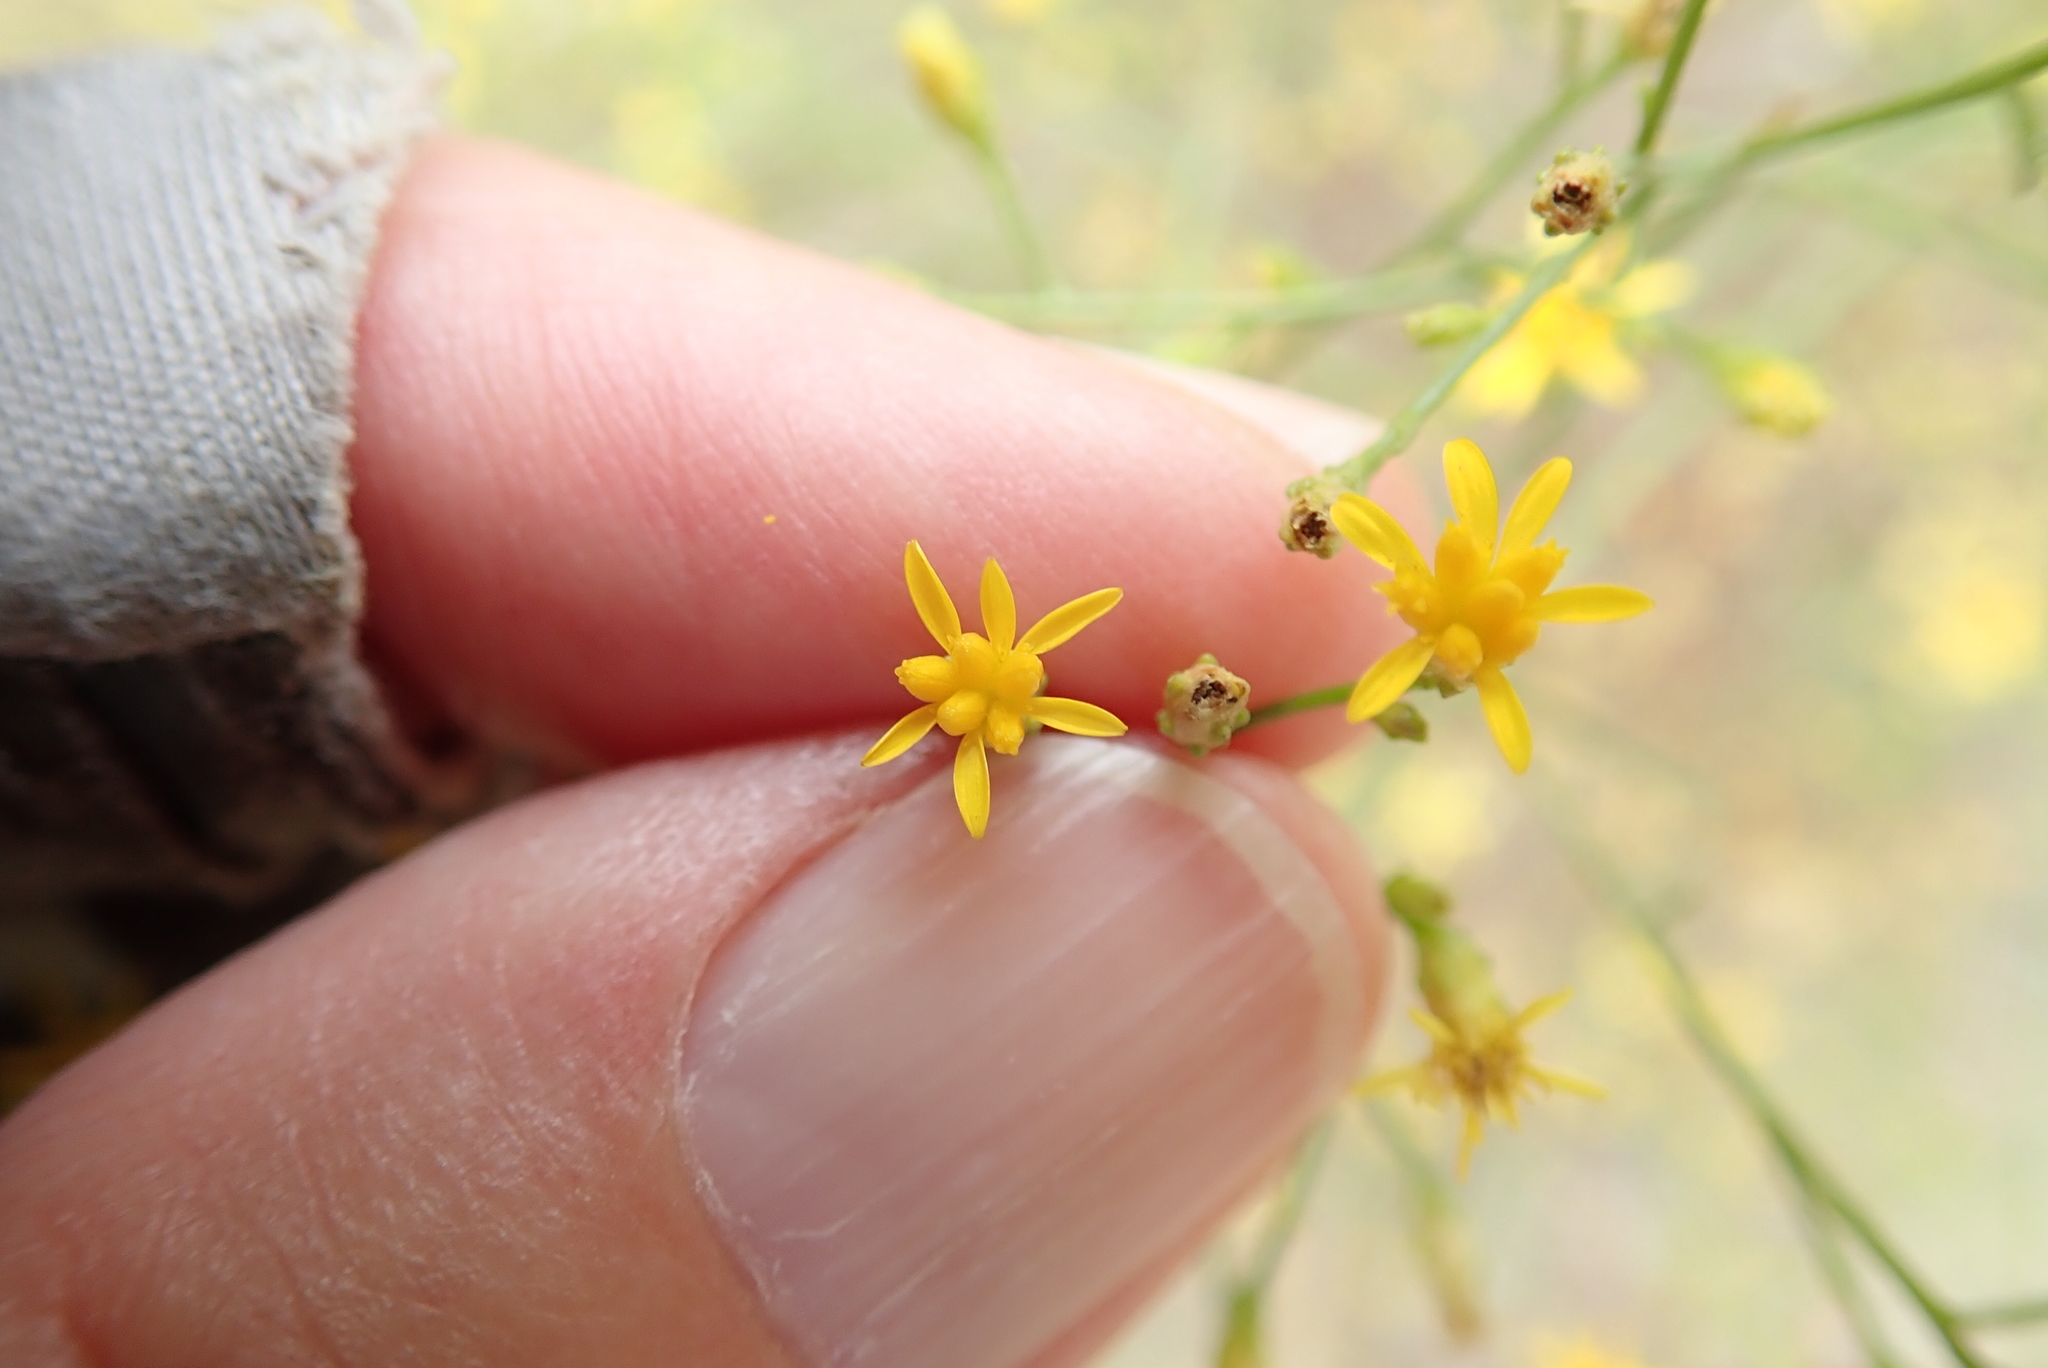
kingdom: Plantae
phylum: Tracheophyta
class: Magnoliopsida
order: Asterales
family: Asteraceae
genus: Gutierrezia
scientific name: Gutierrezia sarothrae
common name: Broom snakeweed
